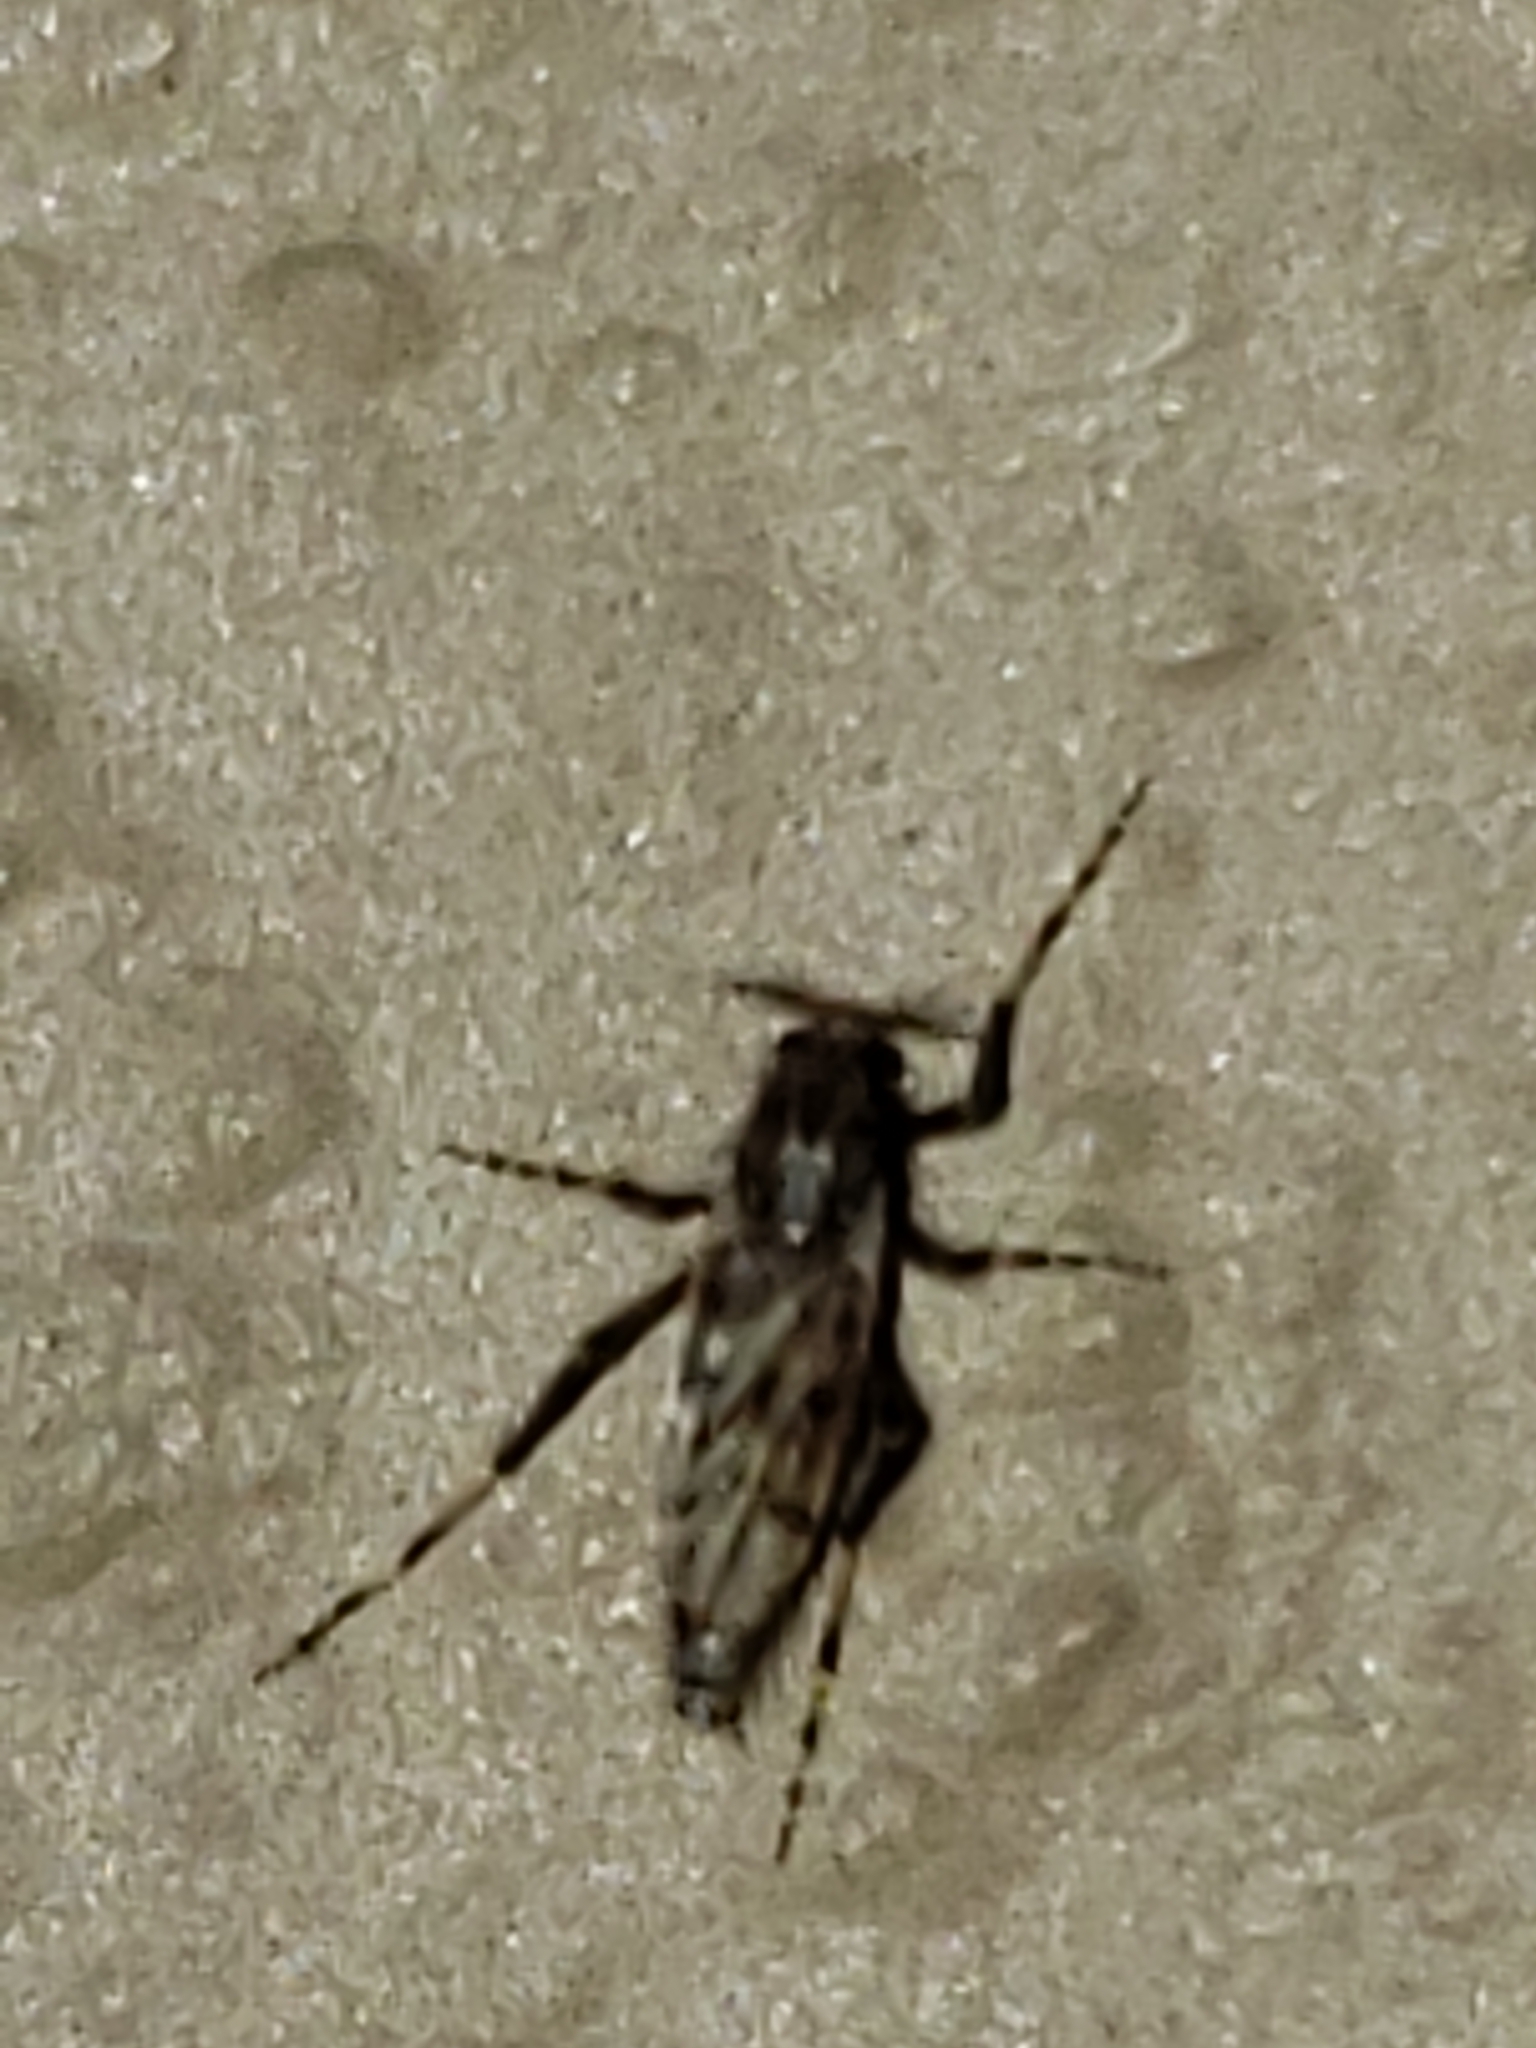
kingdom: Animalia
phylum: Arthropoda
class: Insecta
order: Diptera
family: Chaoboridae
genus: Chaoborus
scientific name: Chaoborus punctipennis
